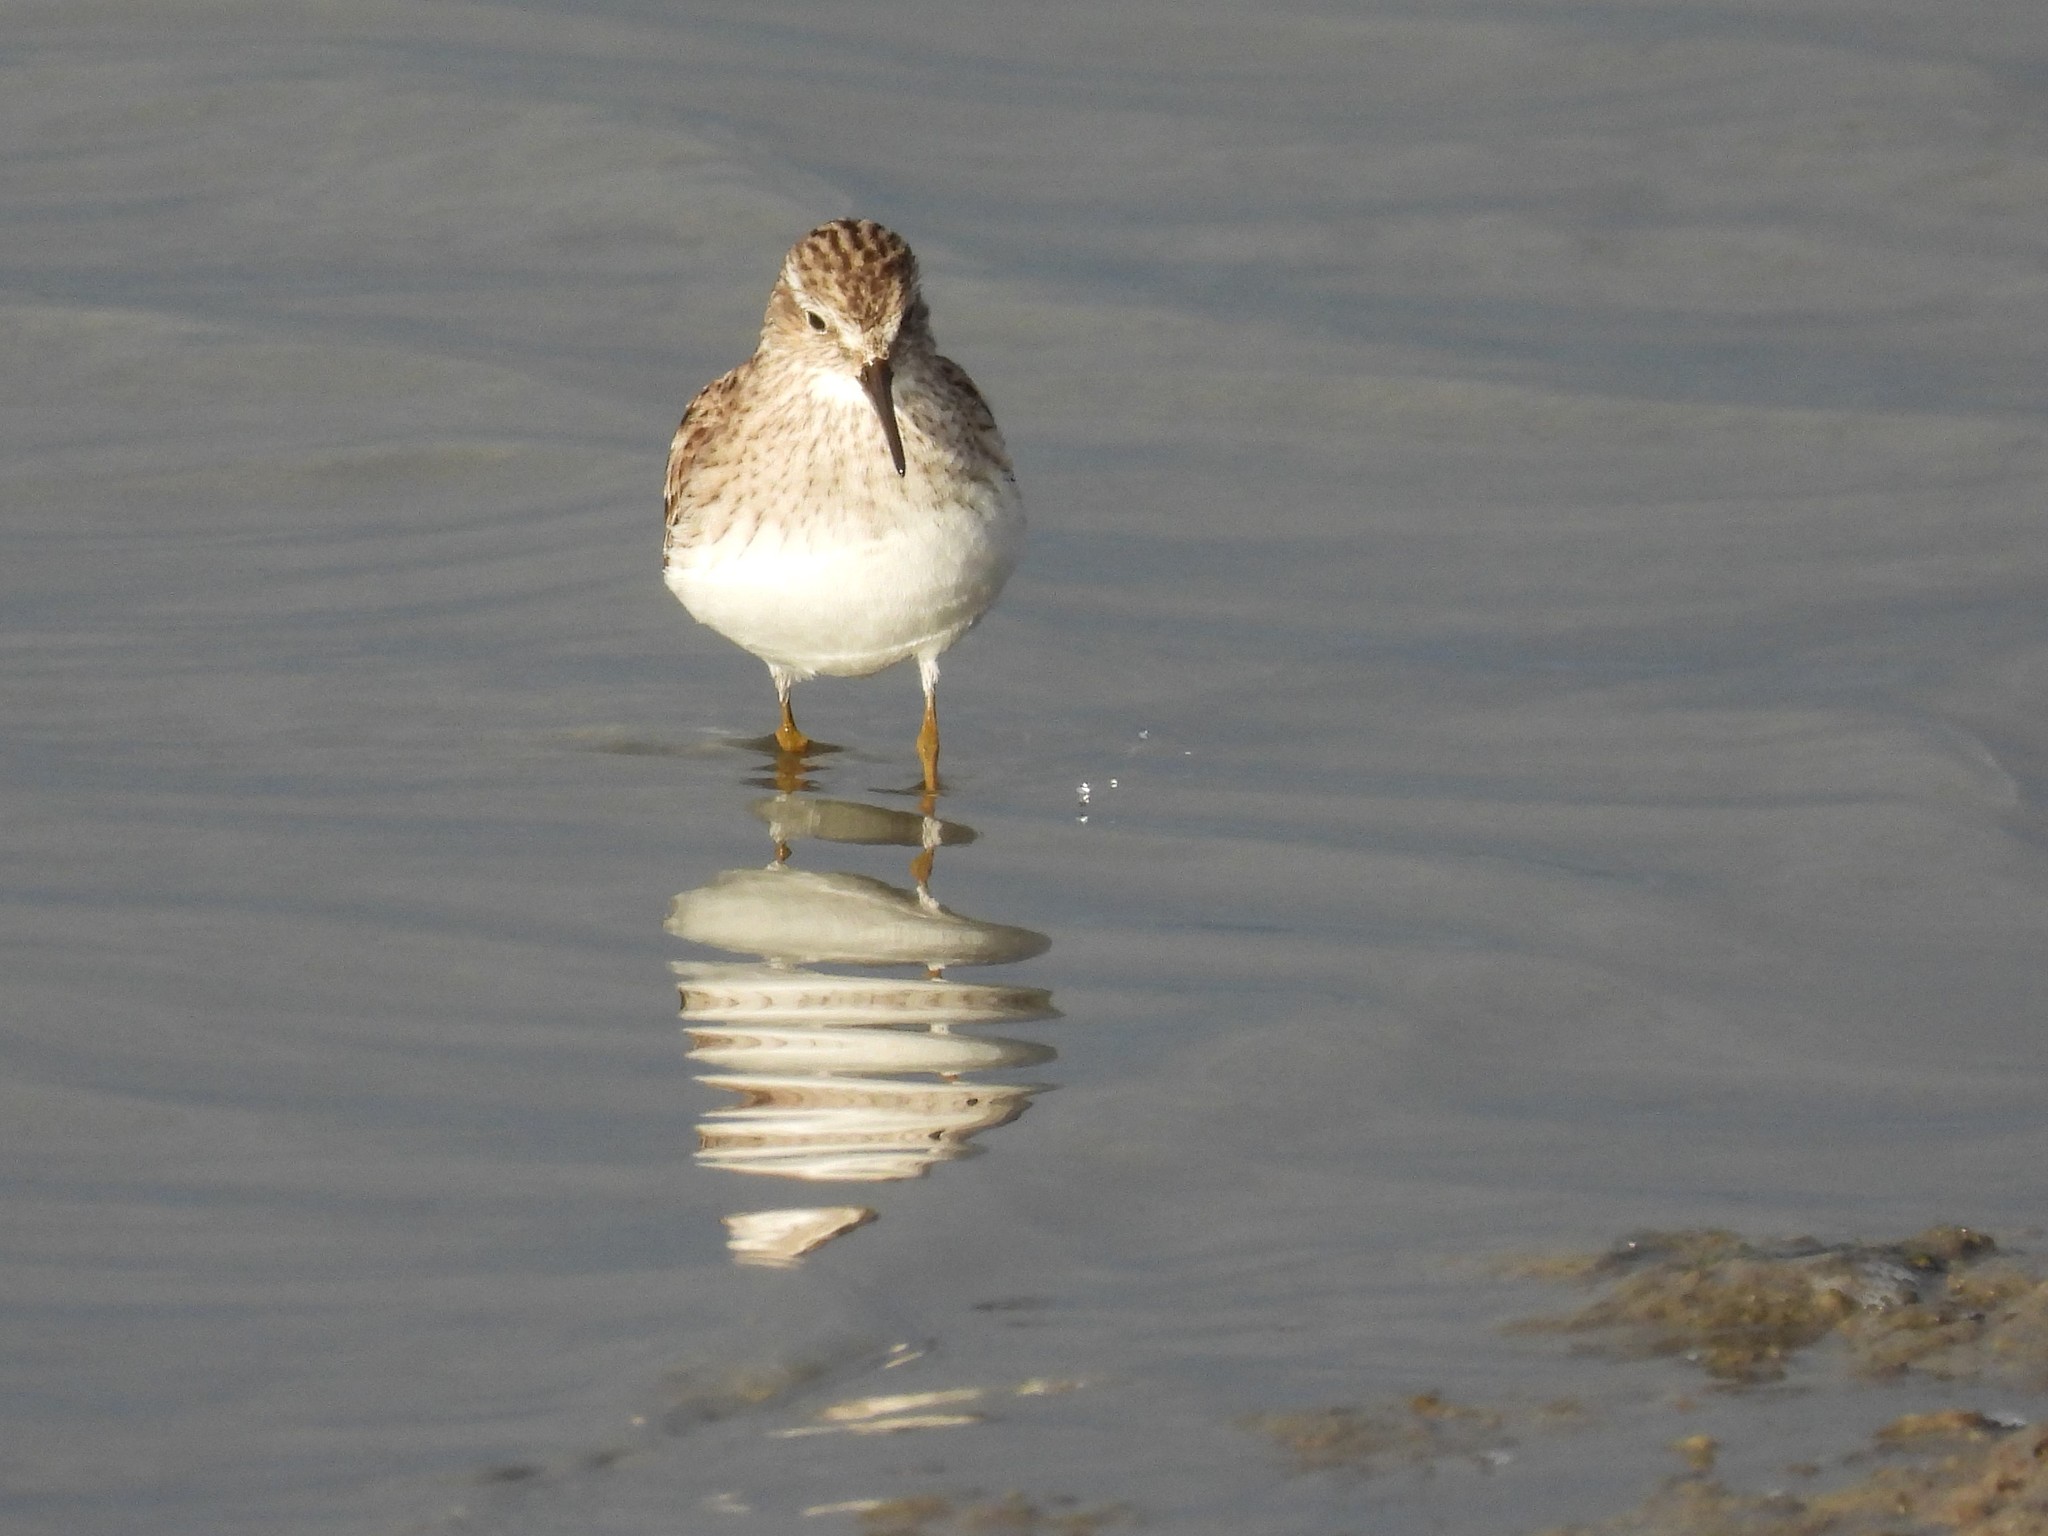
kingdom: Animalia
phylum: Chordata
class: Aves
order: Charadriiformes
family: Scolopacidae
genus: Calidris
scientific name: Calidris minutilla
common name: Least sandpiper
